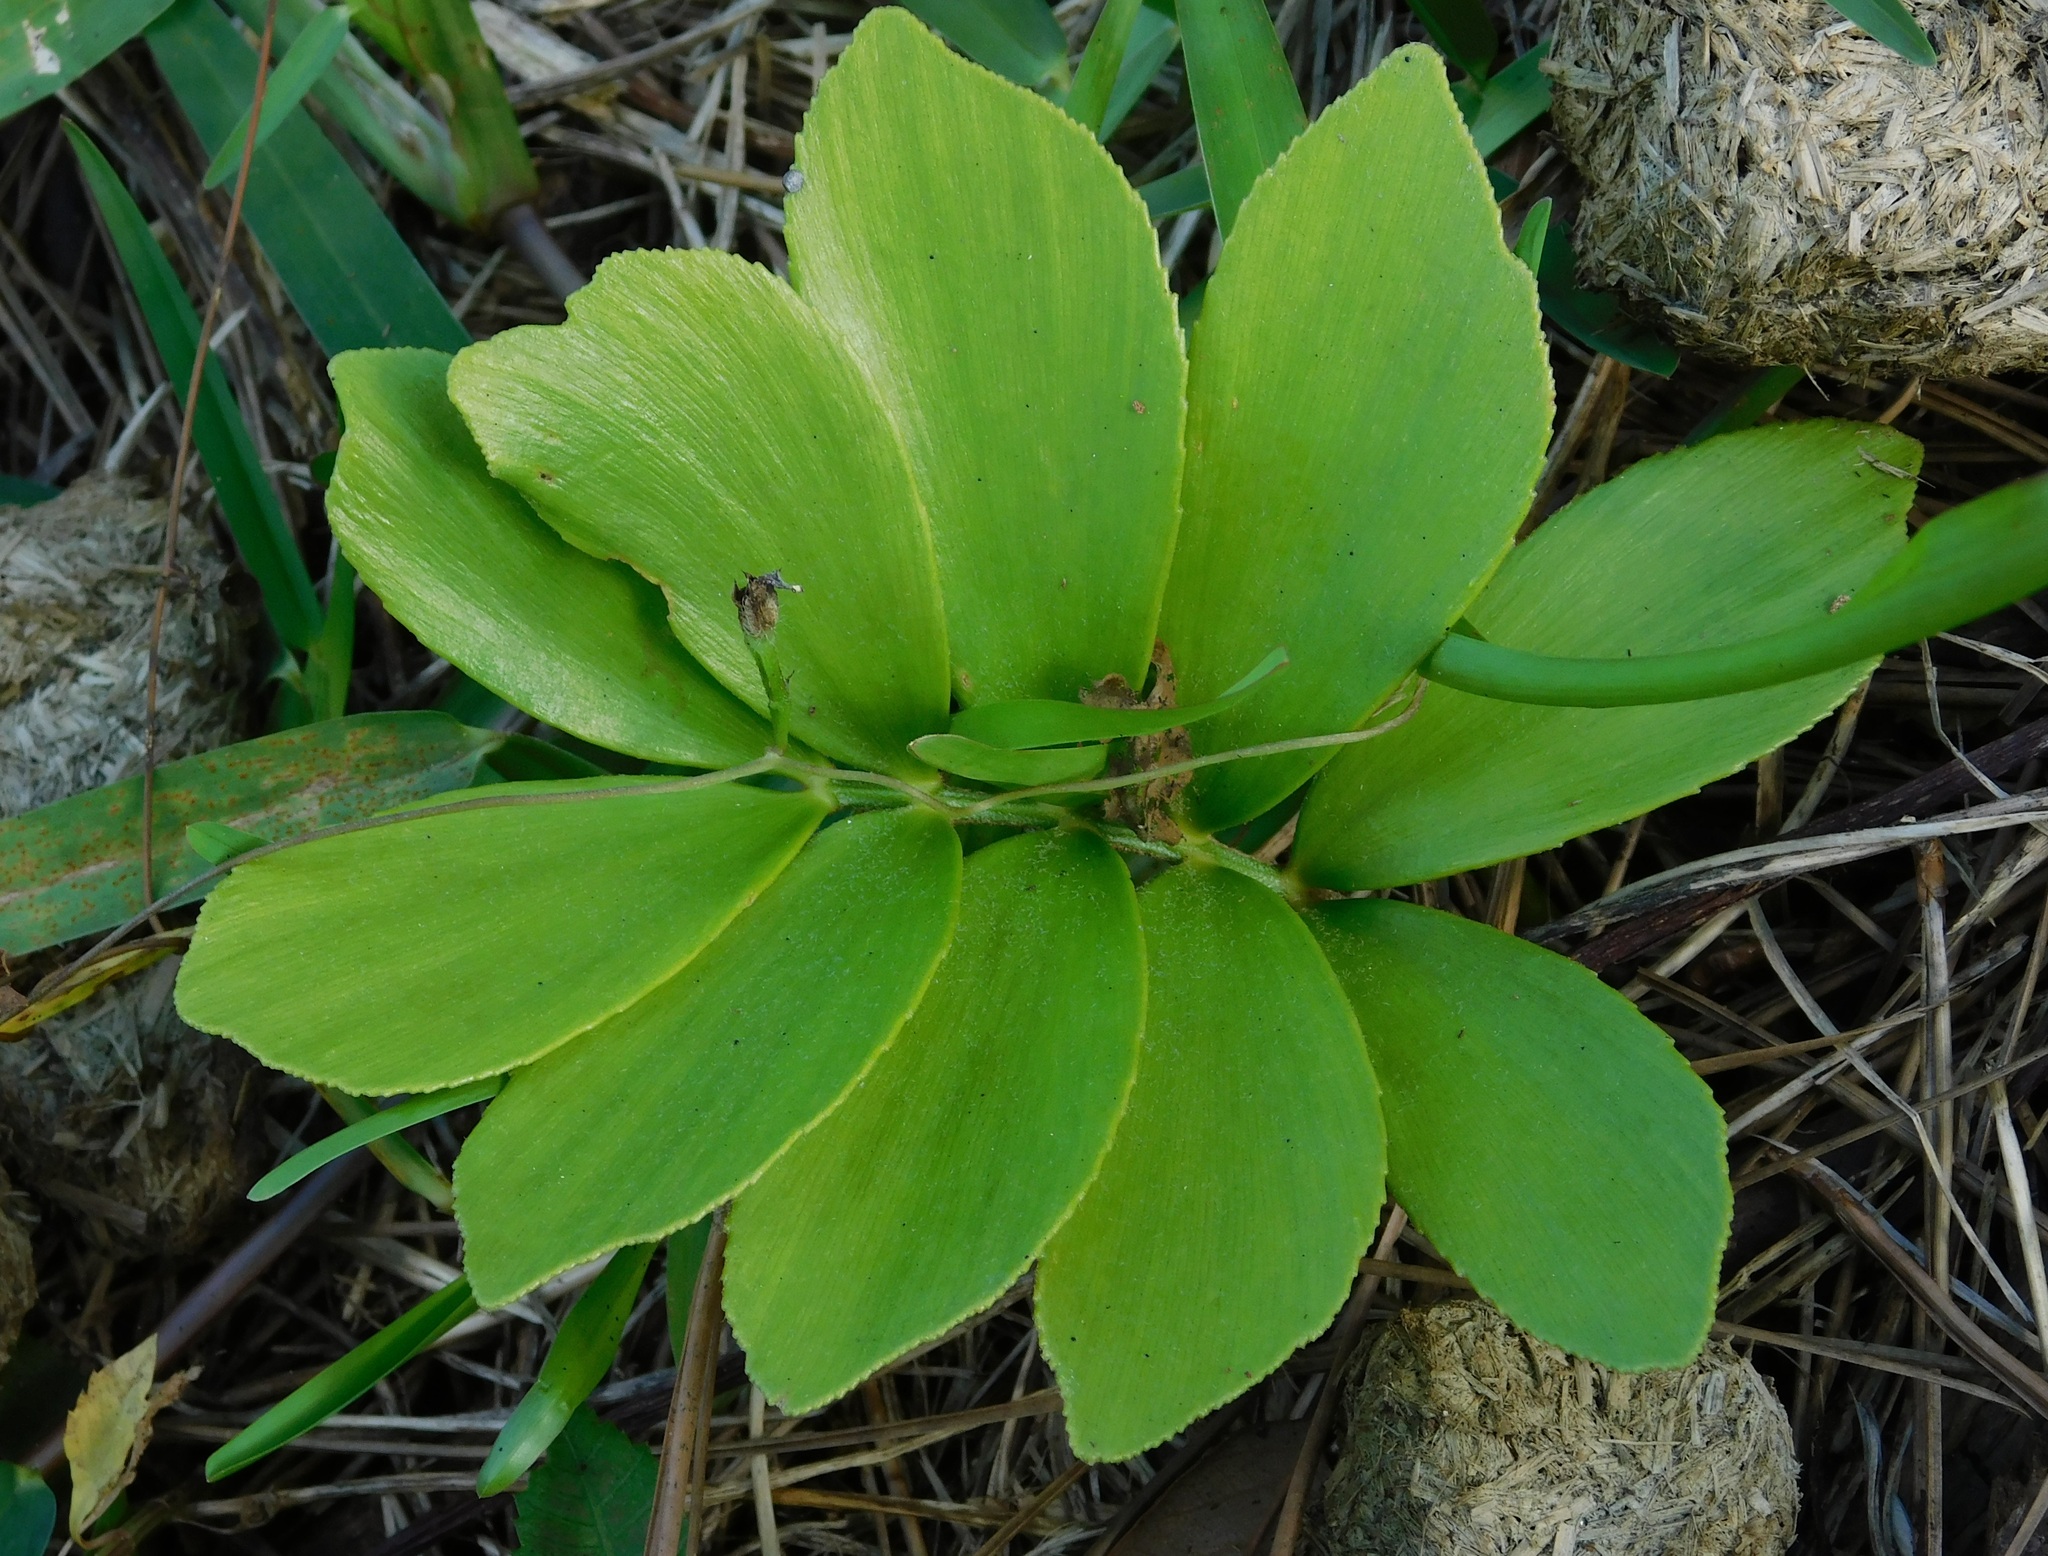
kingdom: Plantae
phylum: Tracheophyta
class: Cycadopsida
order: Cycadales
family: Zamiaceae
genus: Zamia
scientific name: Zamia furfuracea
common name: Cardboard palm
